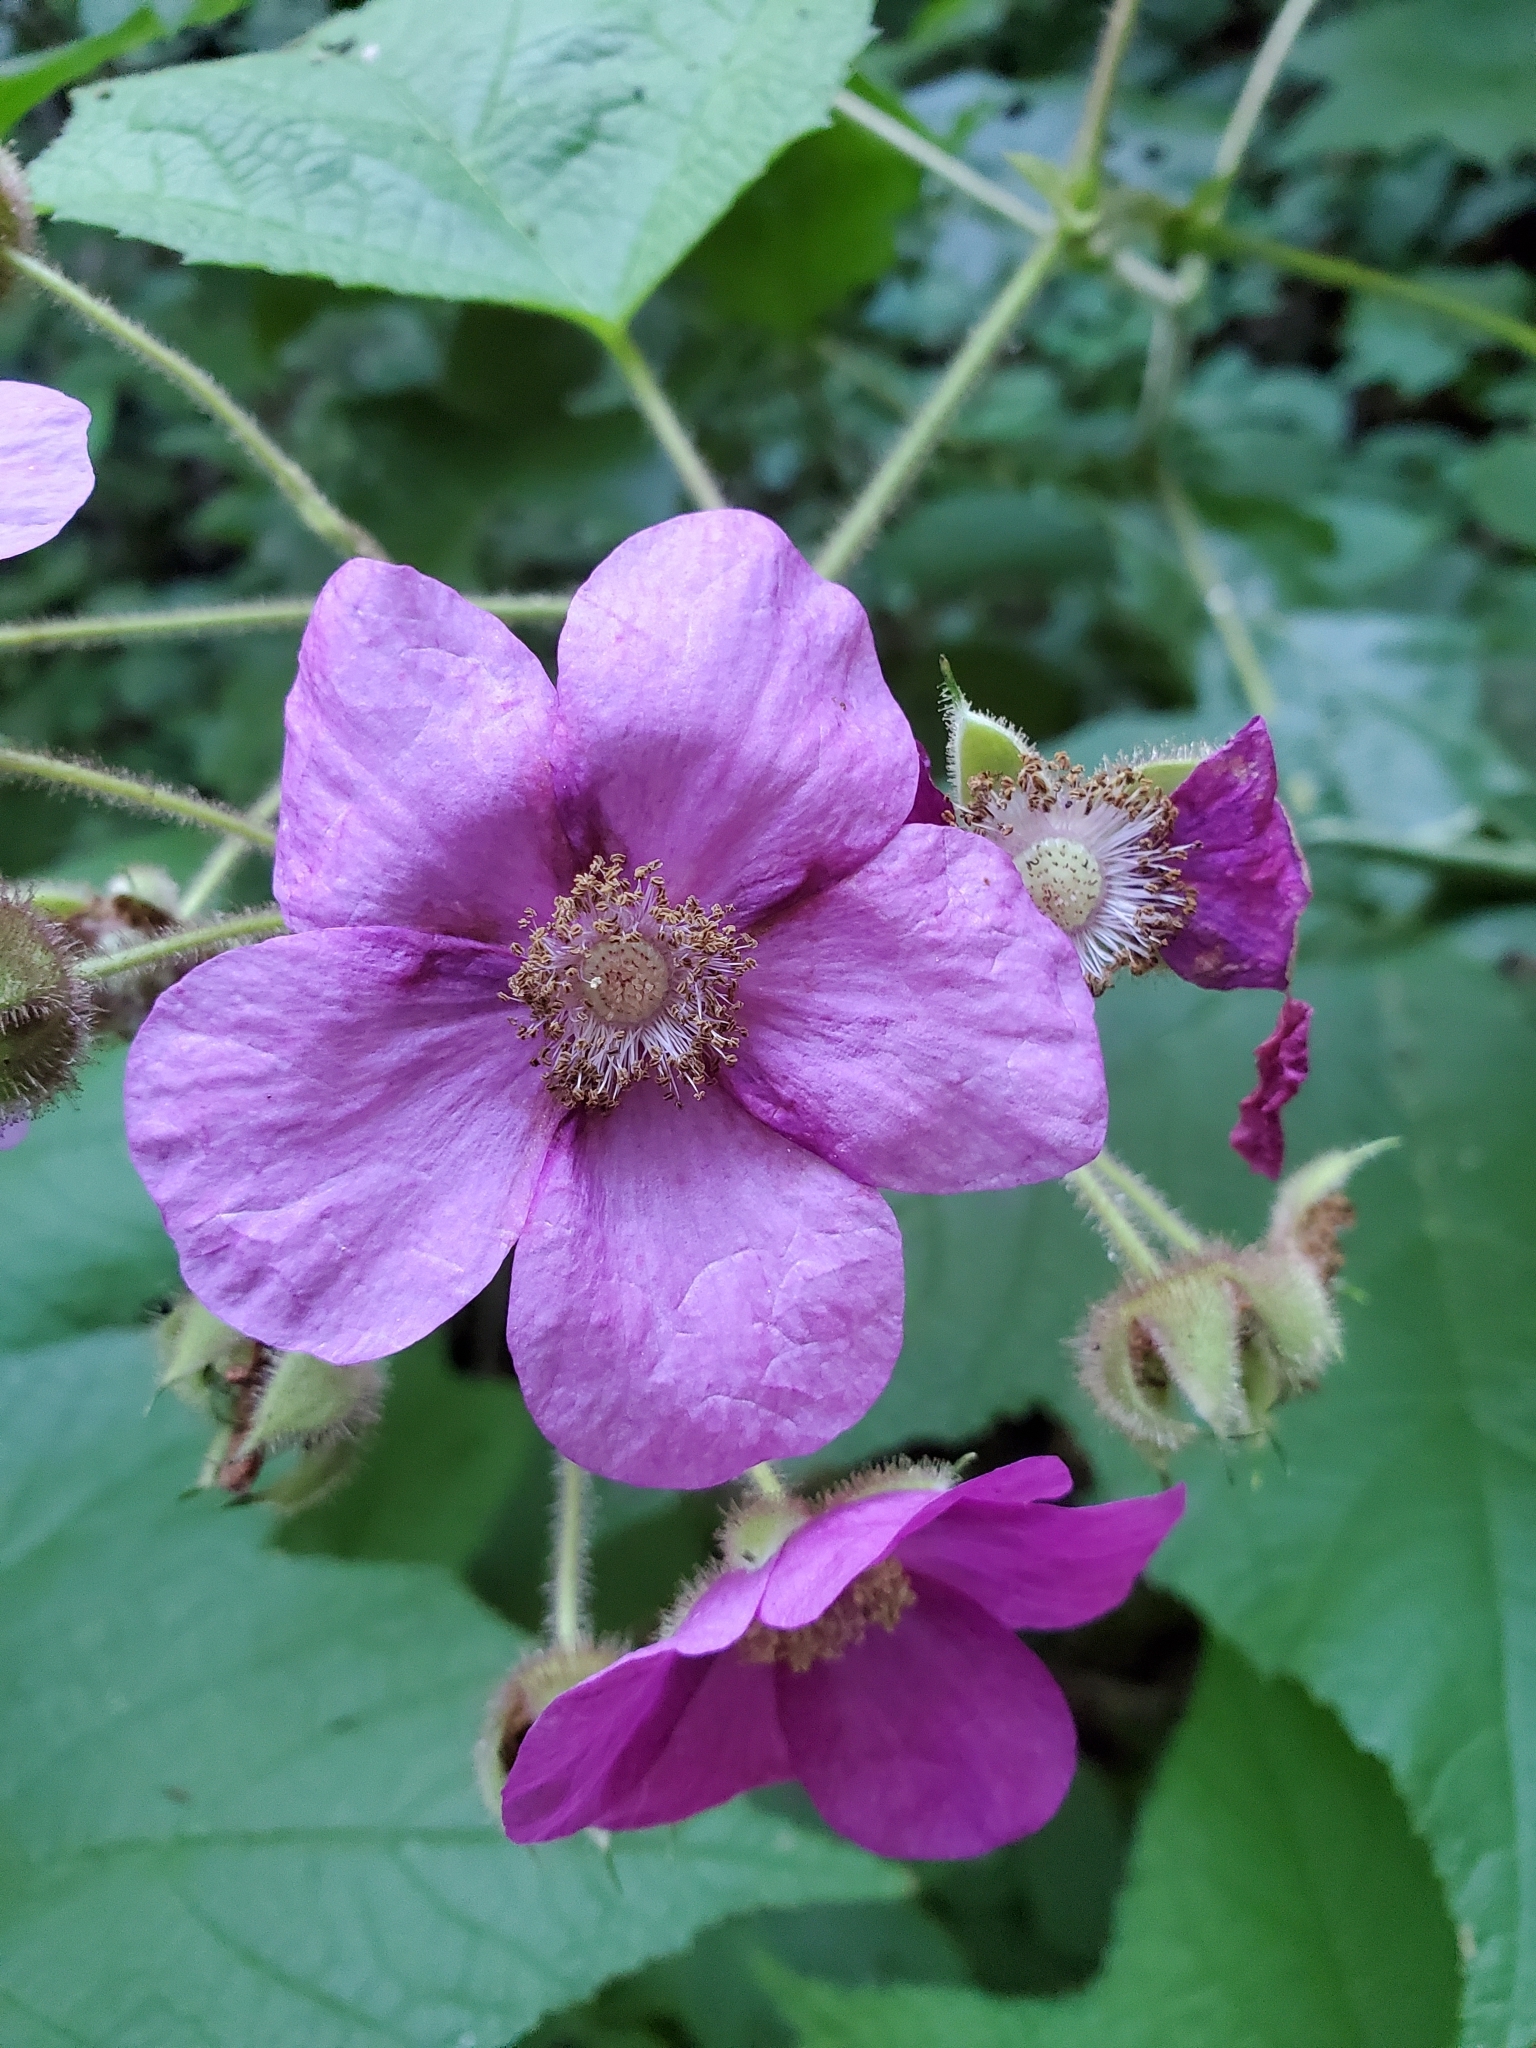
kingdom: Plantae
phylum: Tracheophyta
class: Magnoliopsida
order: Rosales
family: Rosaceae
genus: Rubus
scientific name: Rubus odoratus
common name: Purple-flowered raspberry
